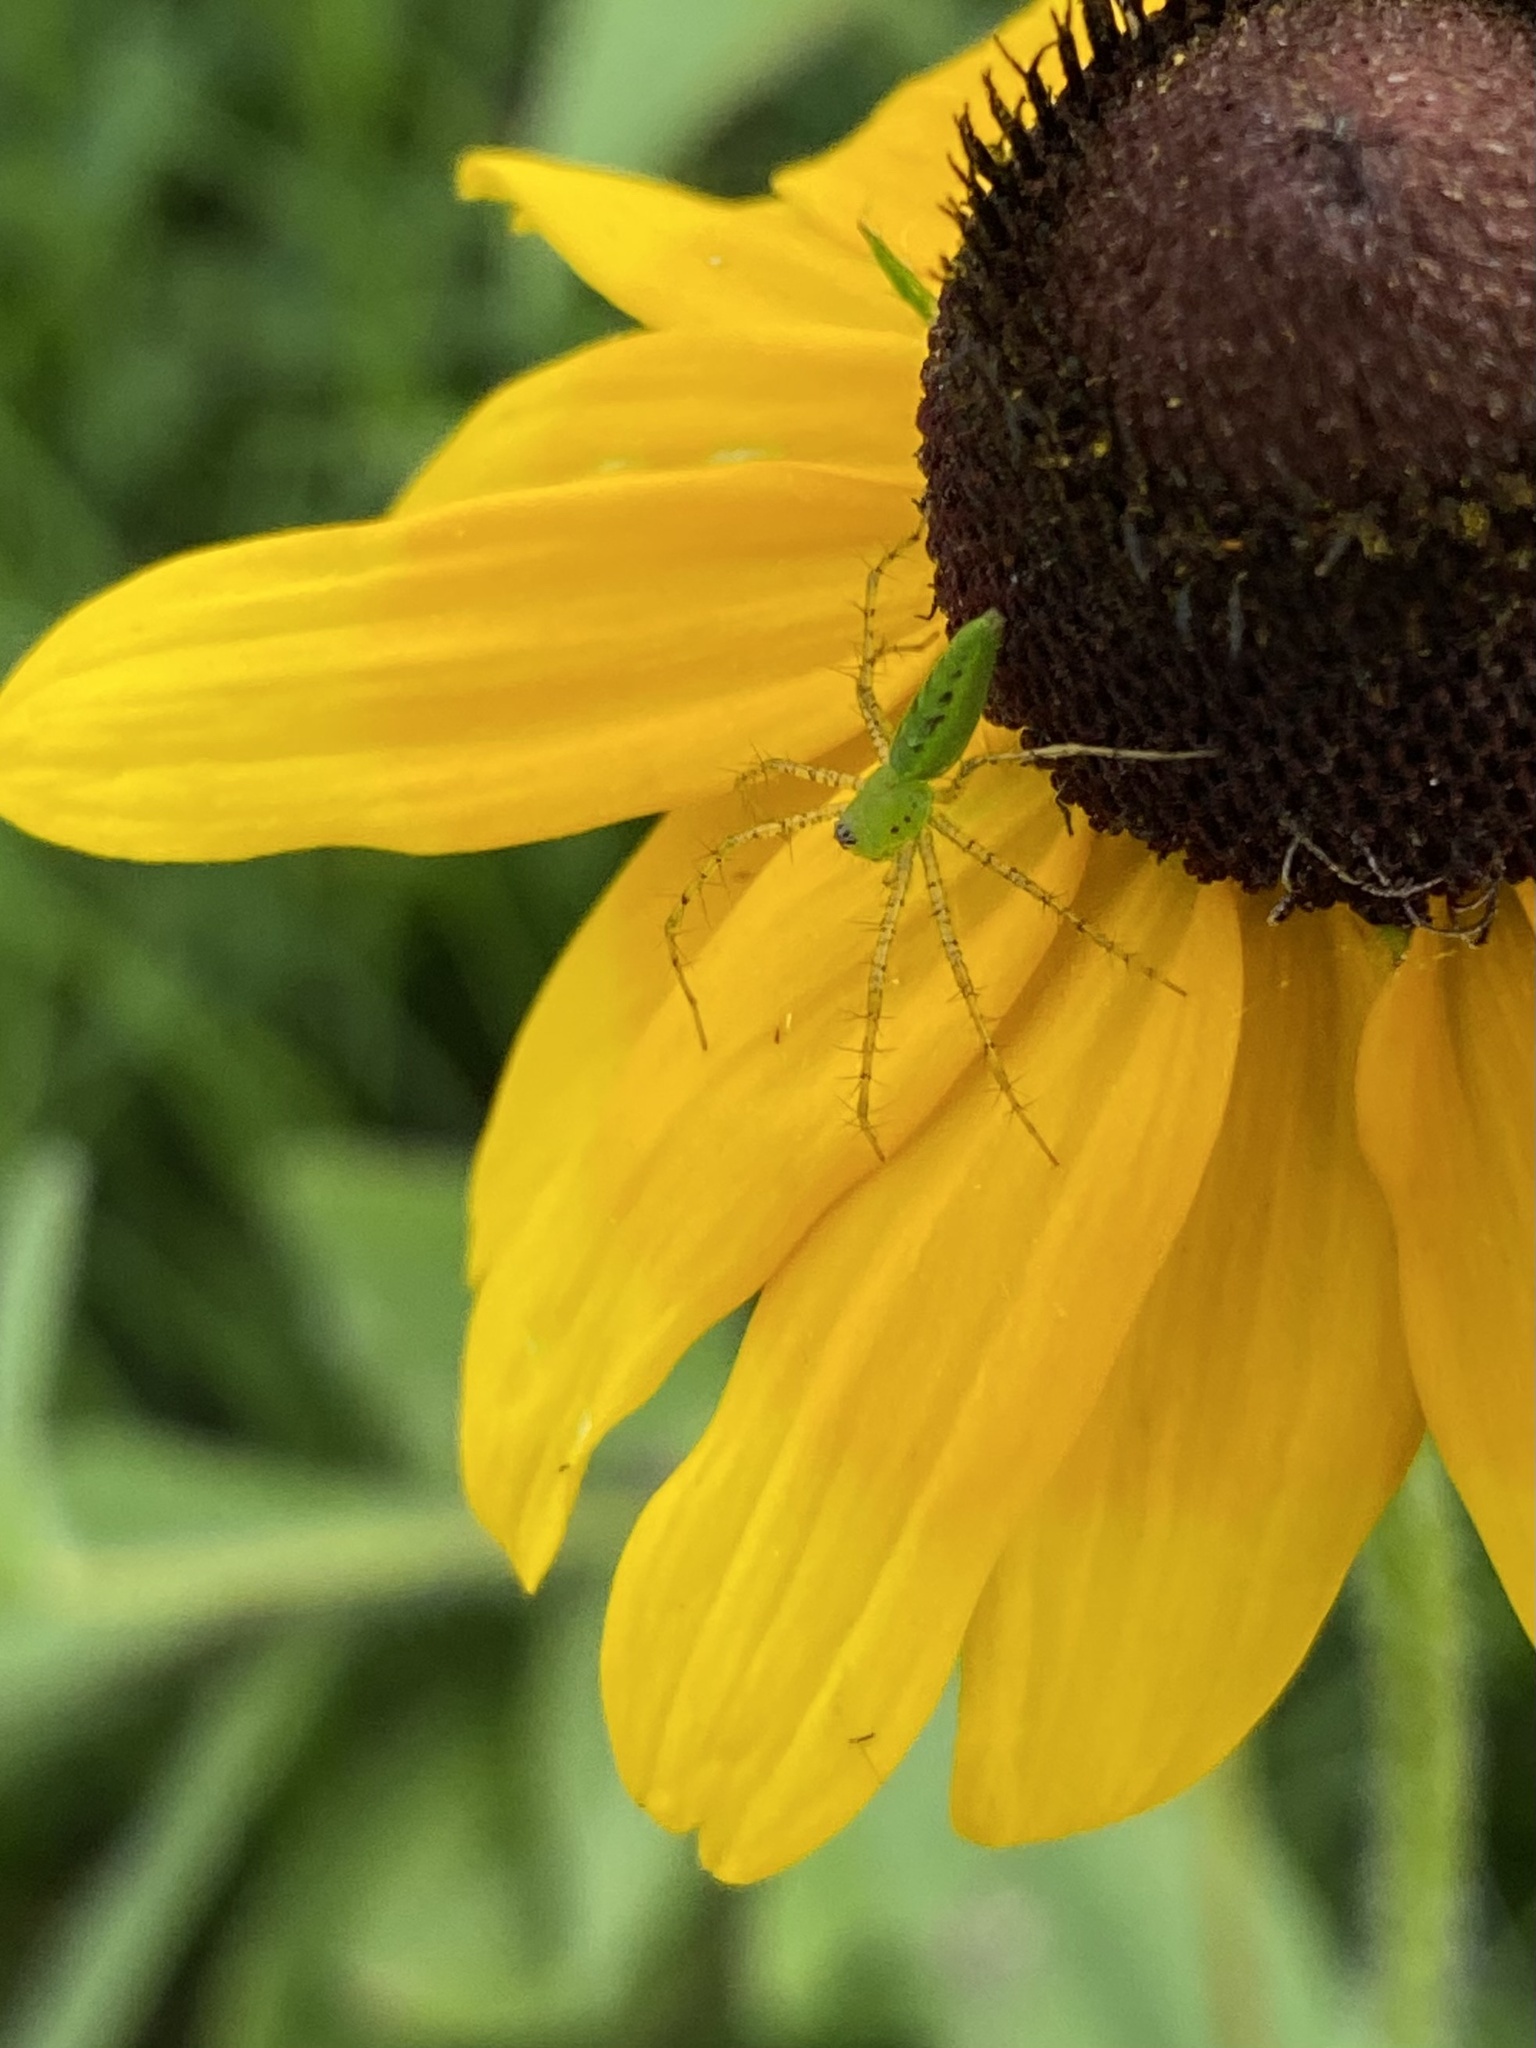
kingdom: Animalia
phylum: Arthropoda
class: Arachnida
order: Araneae
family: Oxyopidae
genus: Peucetia
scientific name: Peucetia viridans
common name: Lynx spiders
